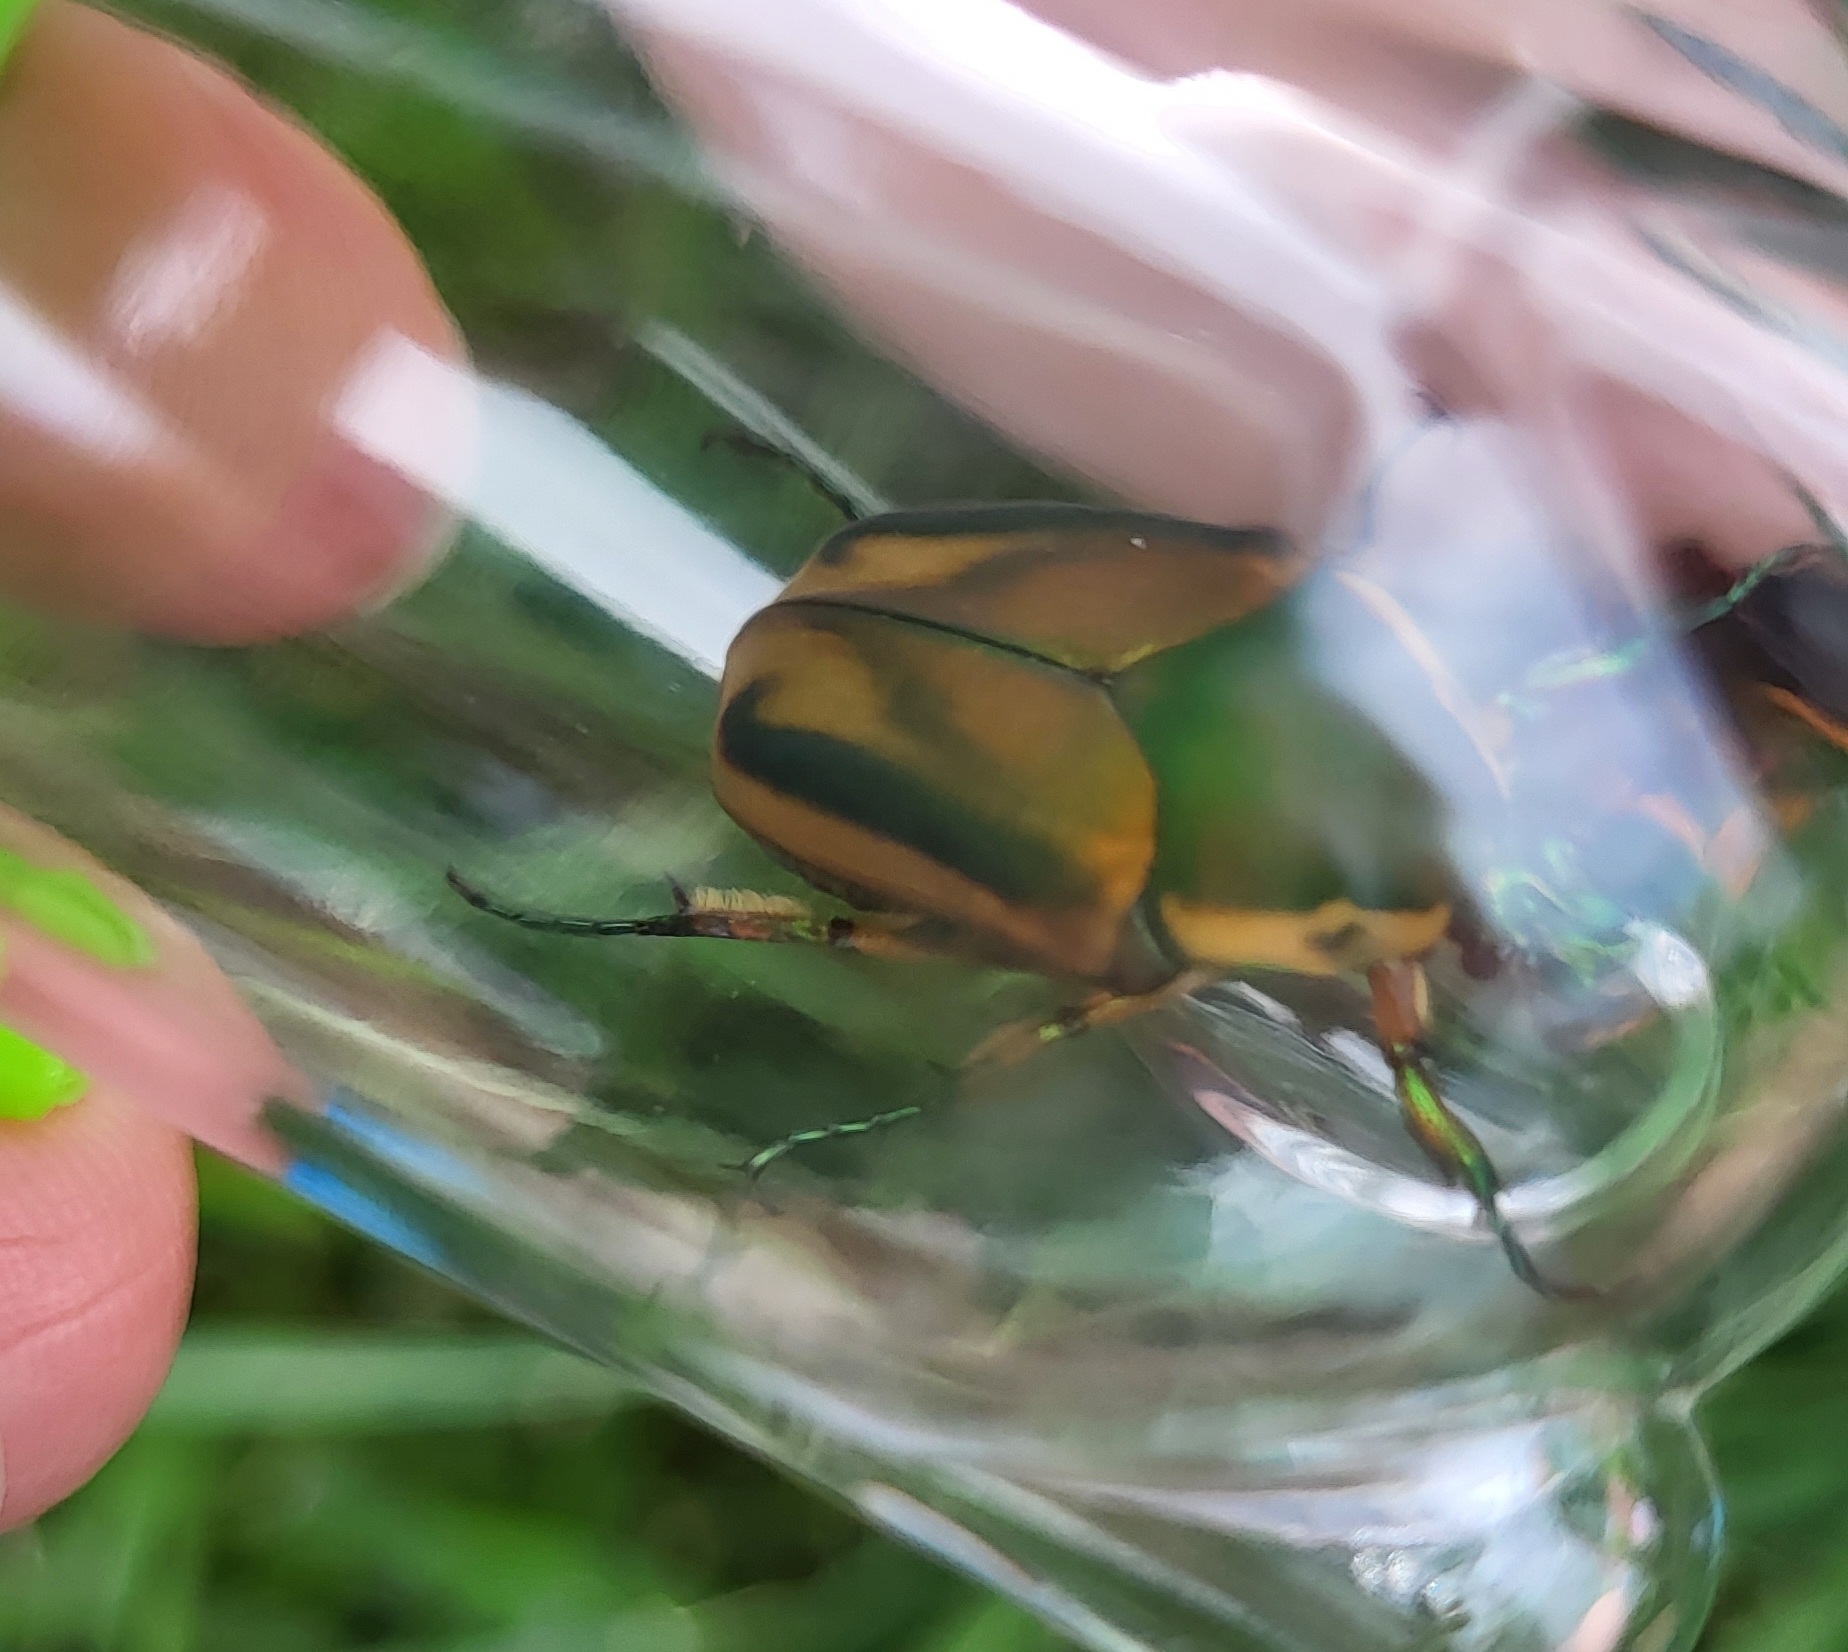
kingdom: Animalia
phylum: Arthropoda
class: Insecta
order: Coleoptera
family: Scarabaeidae
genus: Cotinis
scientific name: Cotinis nitida
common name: Common green june beetle
